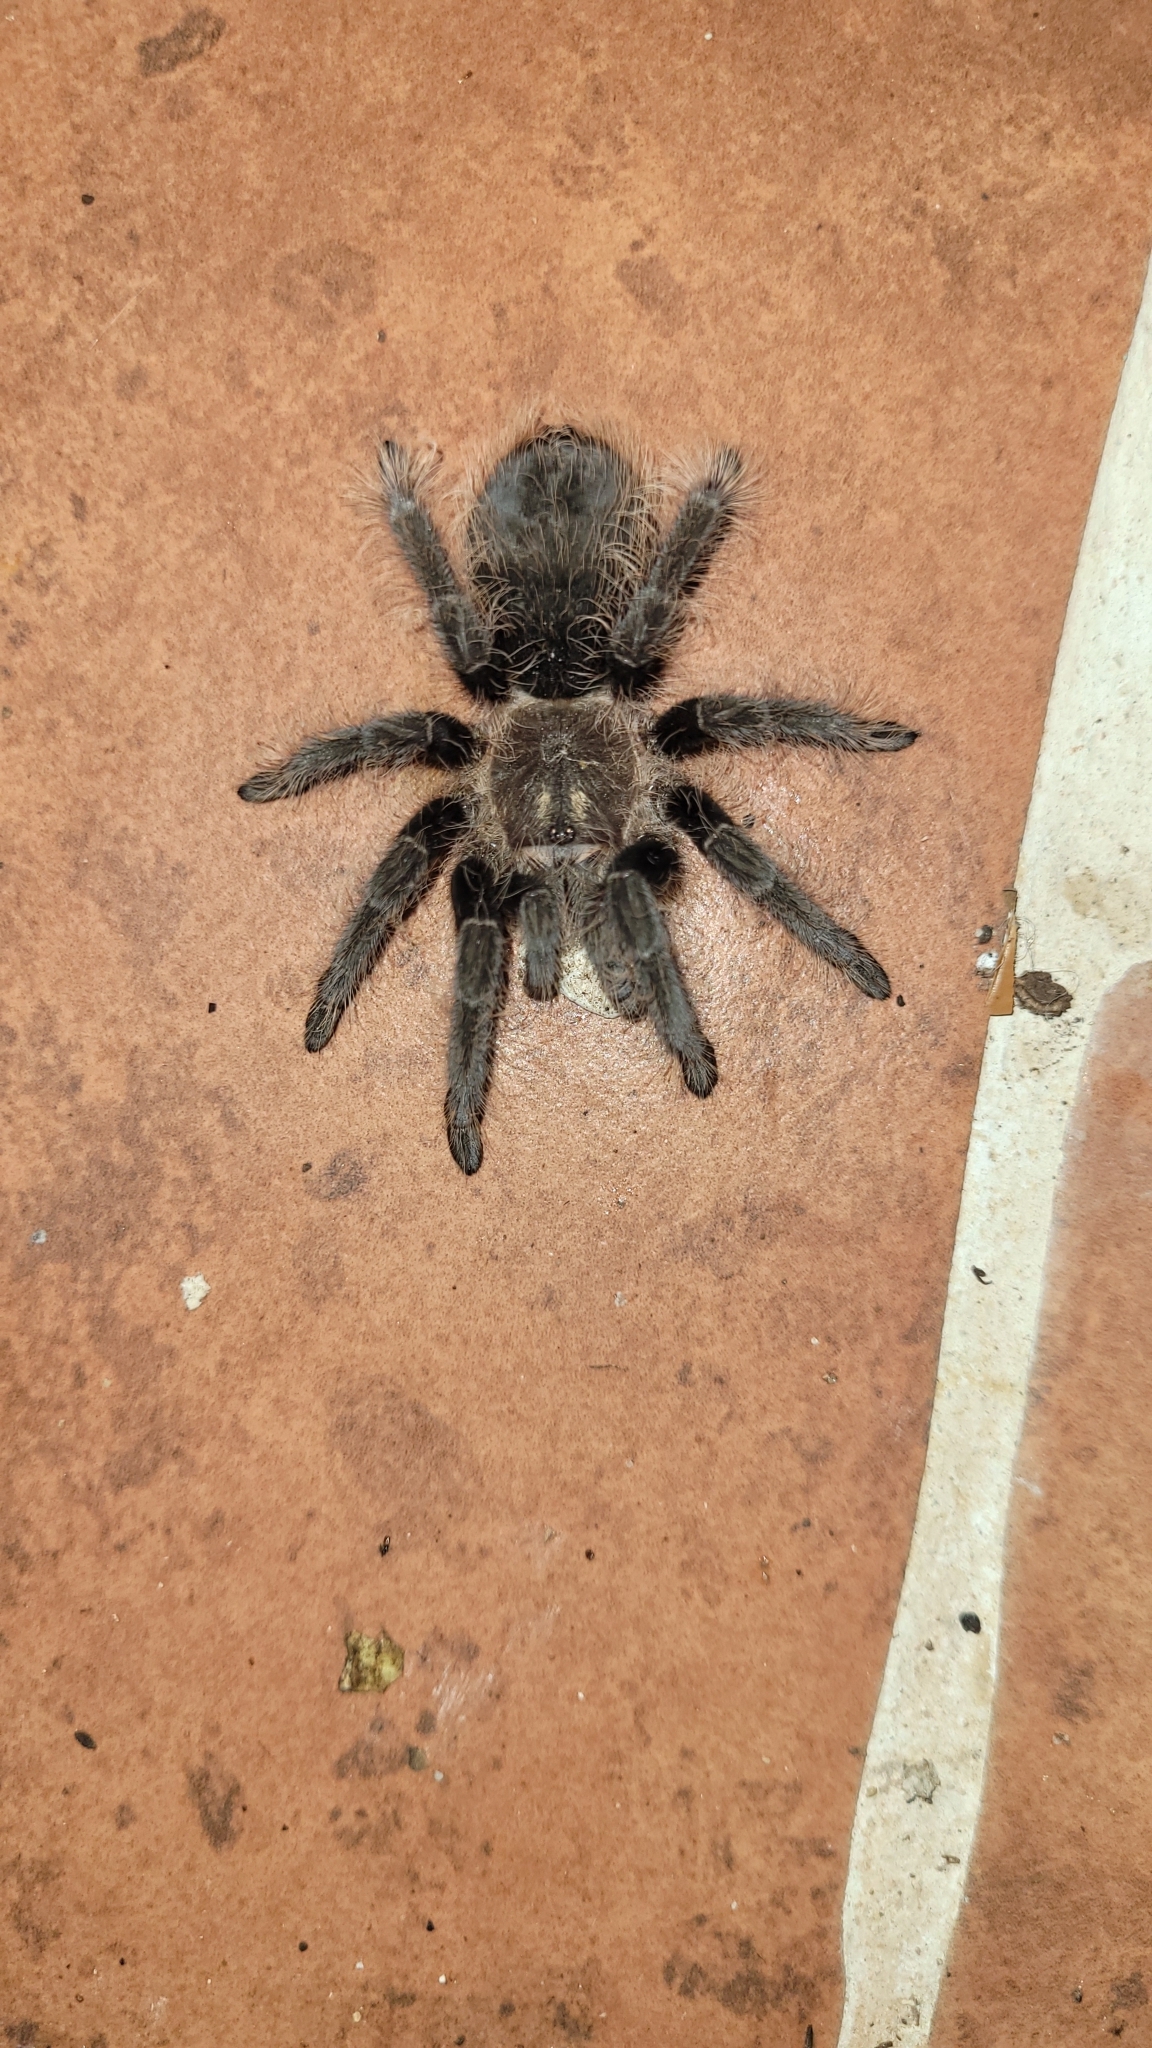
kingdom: Animalia
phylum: Arthropoda
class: Arachnida
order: Araneae
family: Theraphosidae
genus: Tliltocatl
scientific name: Tliltocatl albopilosus
